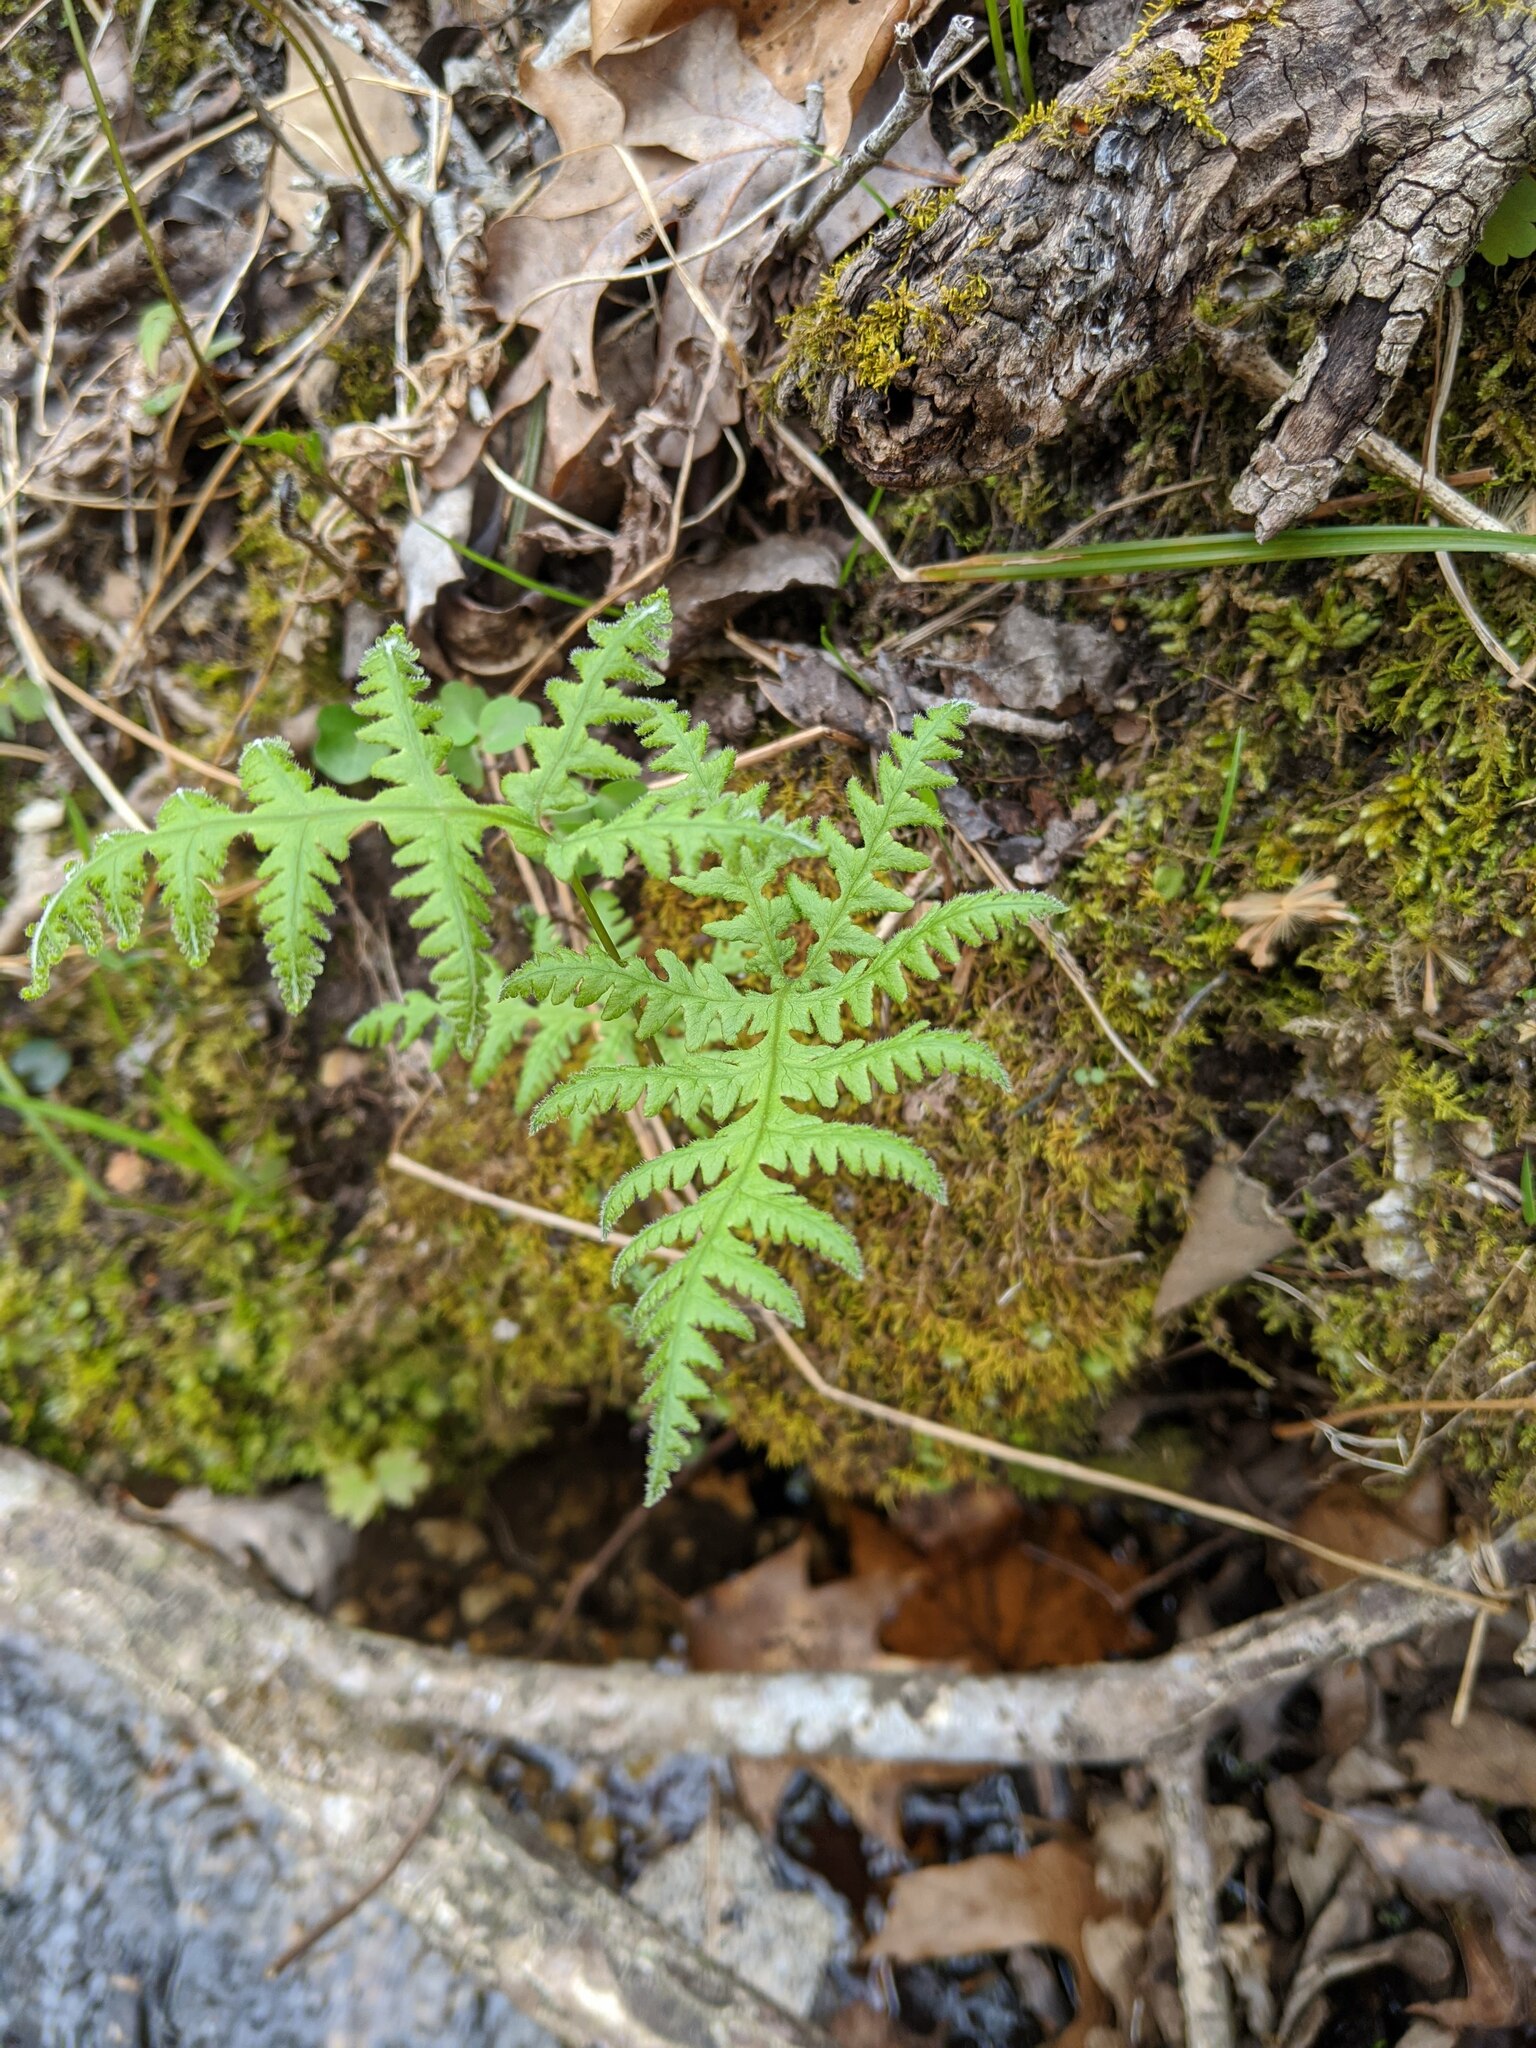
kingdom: Plantae
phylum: Tracheophyta
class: Polypodiopsida
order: Polypodiales
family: Thelypteridaceae
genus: Phegopteris
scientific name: Phegopteris hexagonoptera
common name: Broad beech fern
